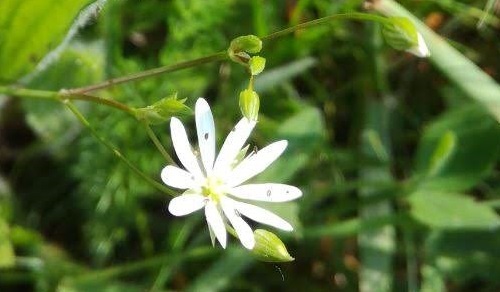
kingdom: Plantae
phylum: Tracheophyta
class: Magnoliopsida
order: Caryophyllales
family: Caryophyllaceae
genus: Stellaria
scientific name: Stellaria graminea
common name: Grass-like starwort
